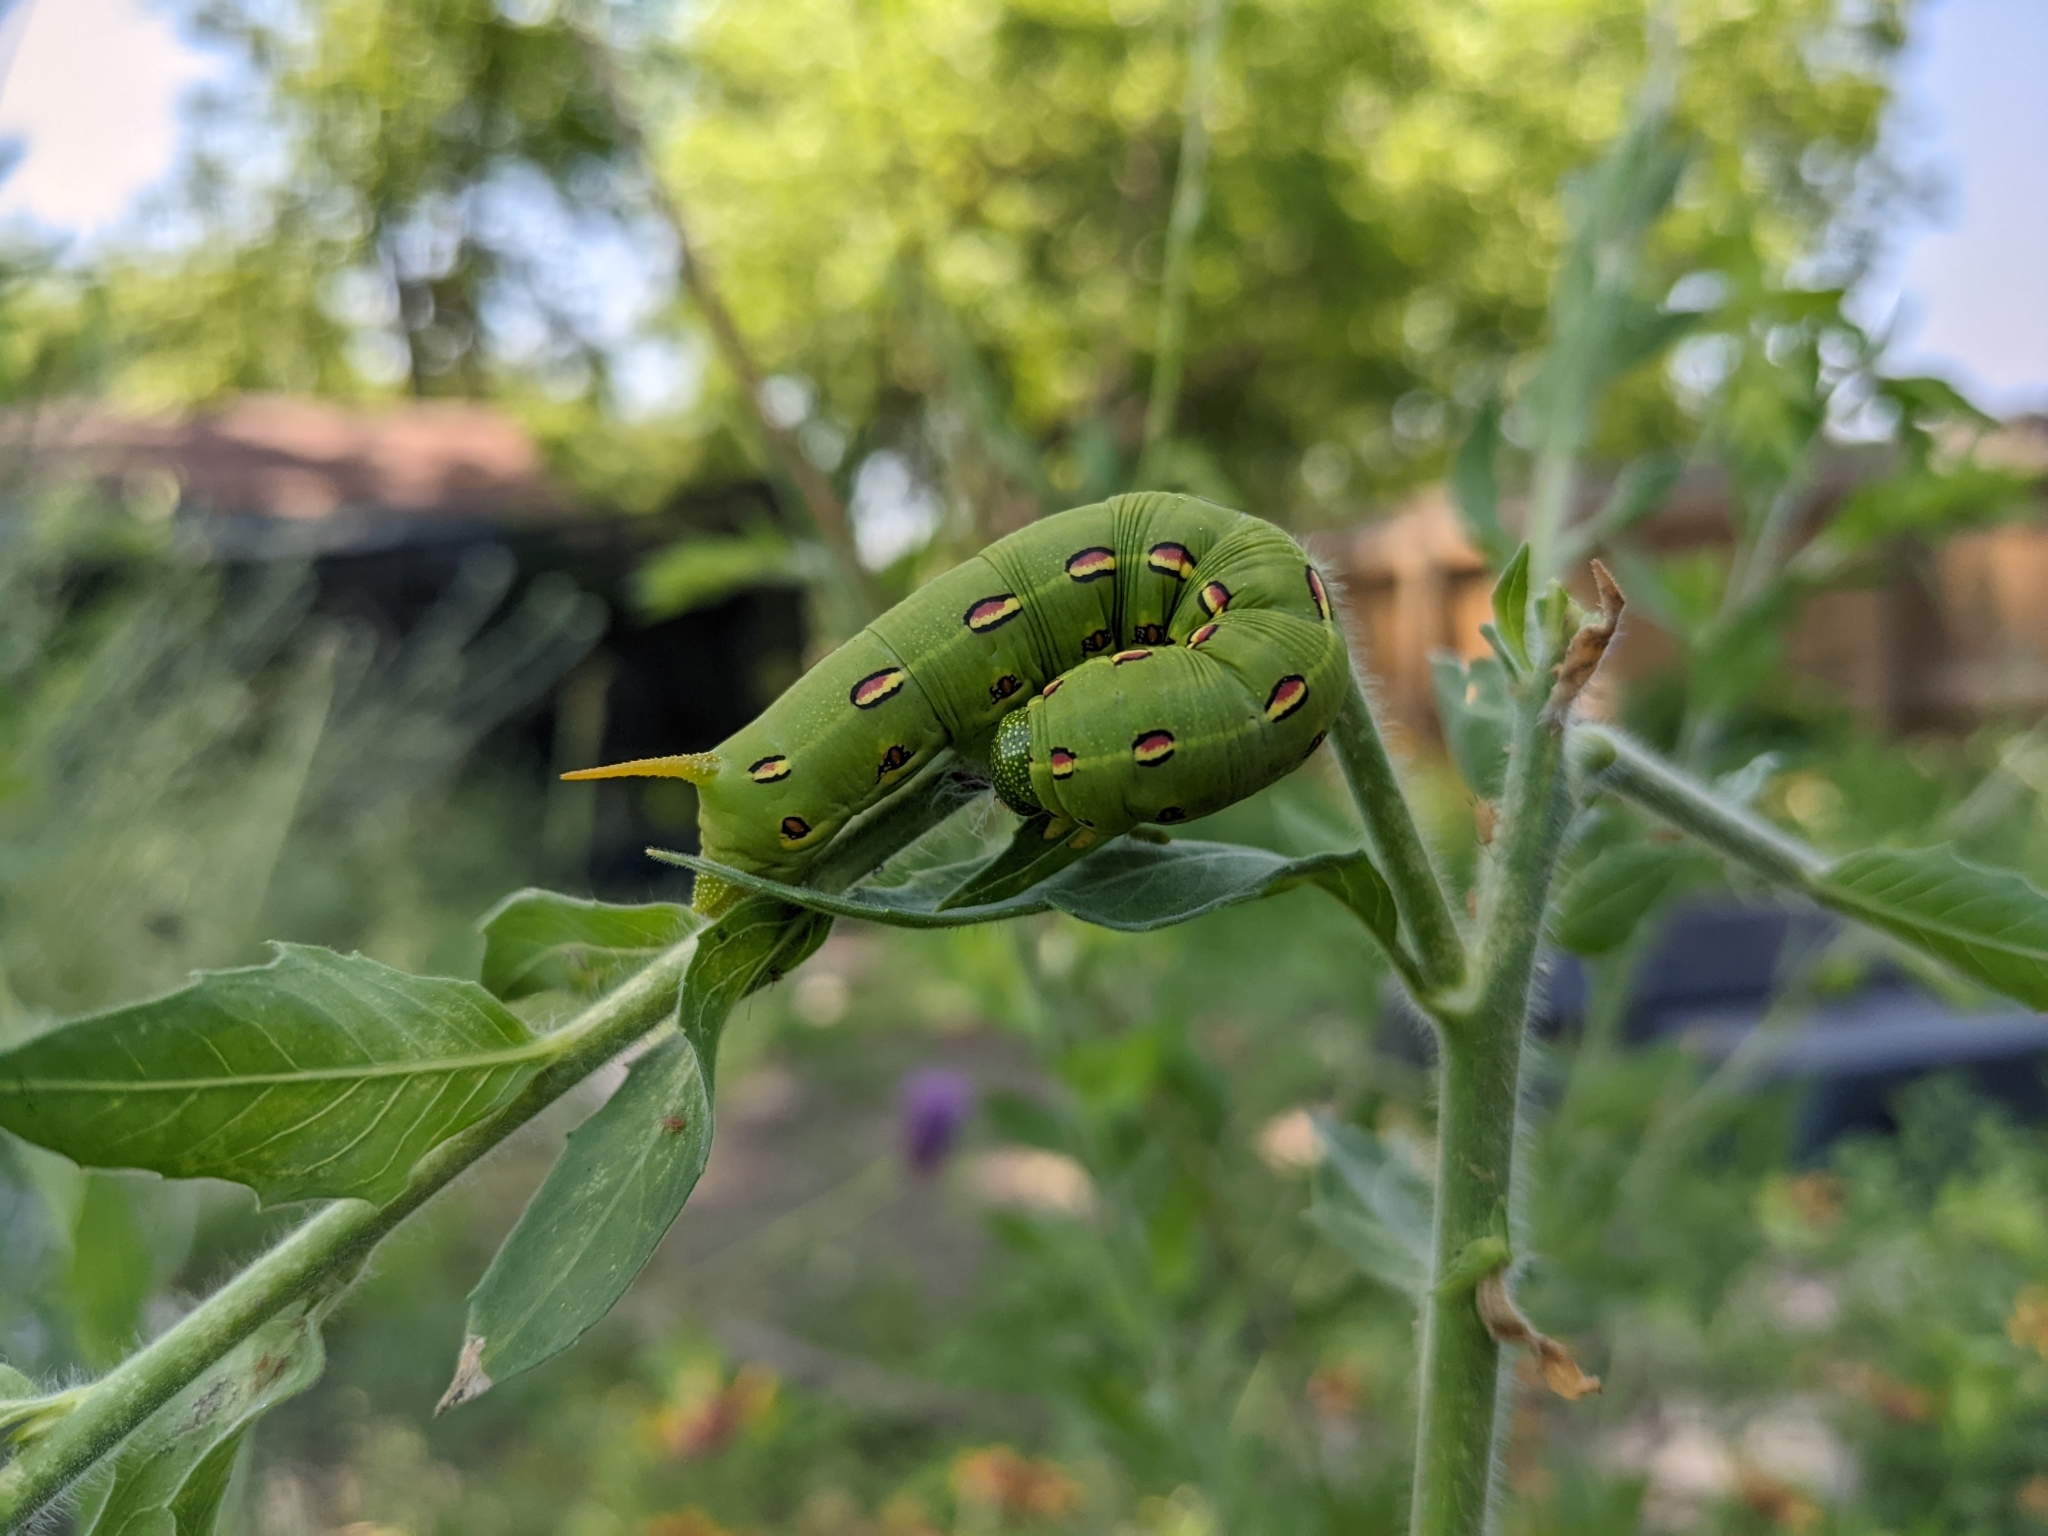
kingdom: Animalia
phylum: Arthropoda
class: Insecta
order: Lepidoptera
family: Sphingidae
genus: Hyles
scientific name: Hyles lineata
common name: White-lined sphinx
